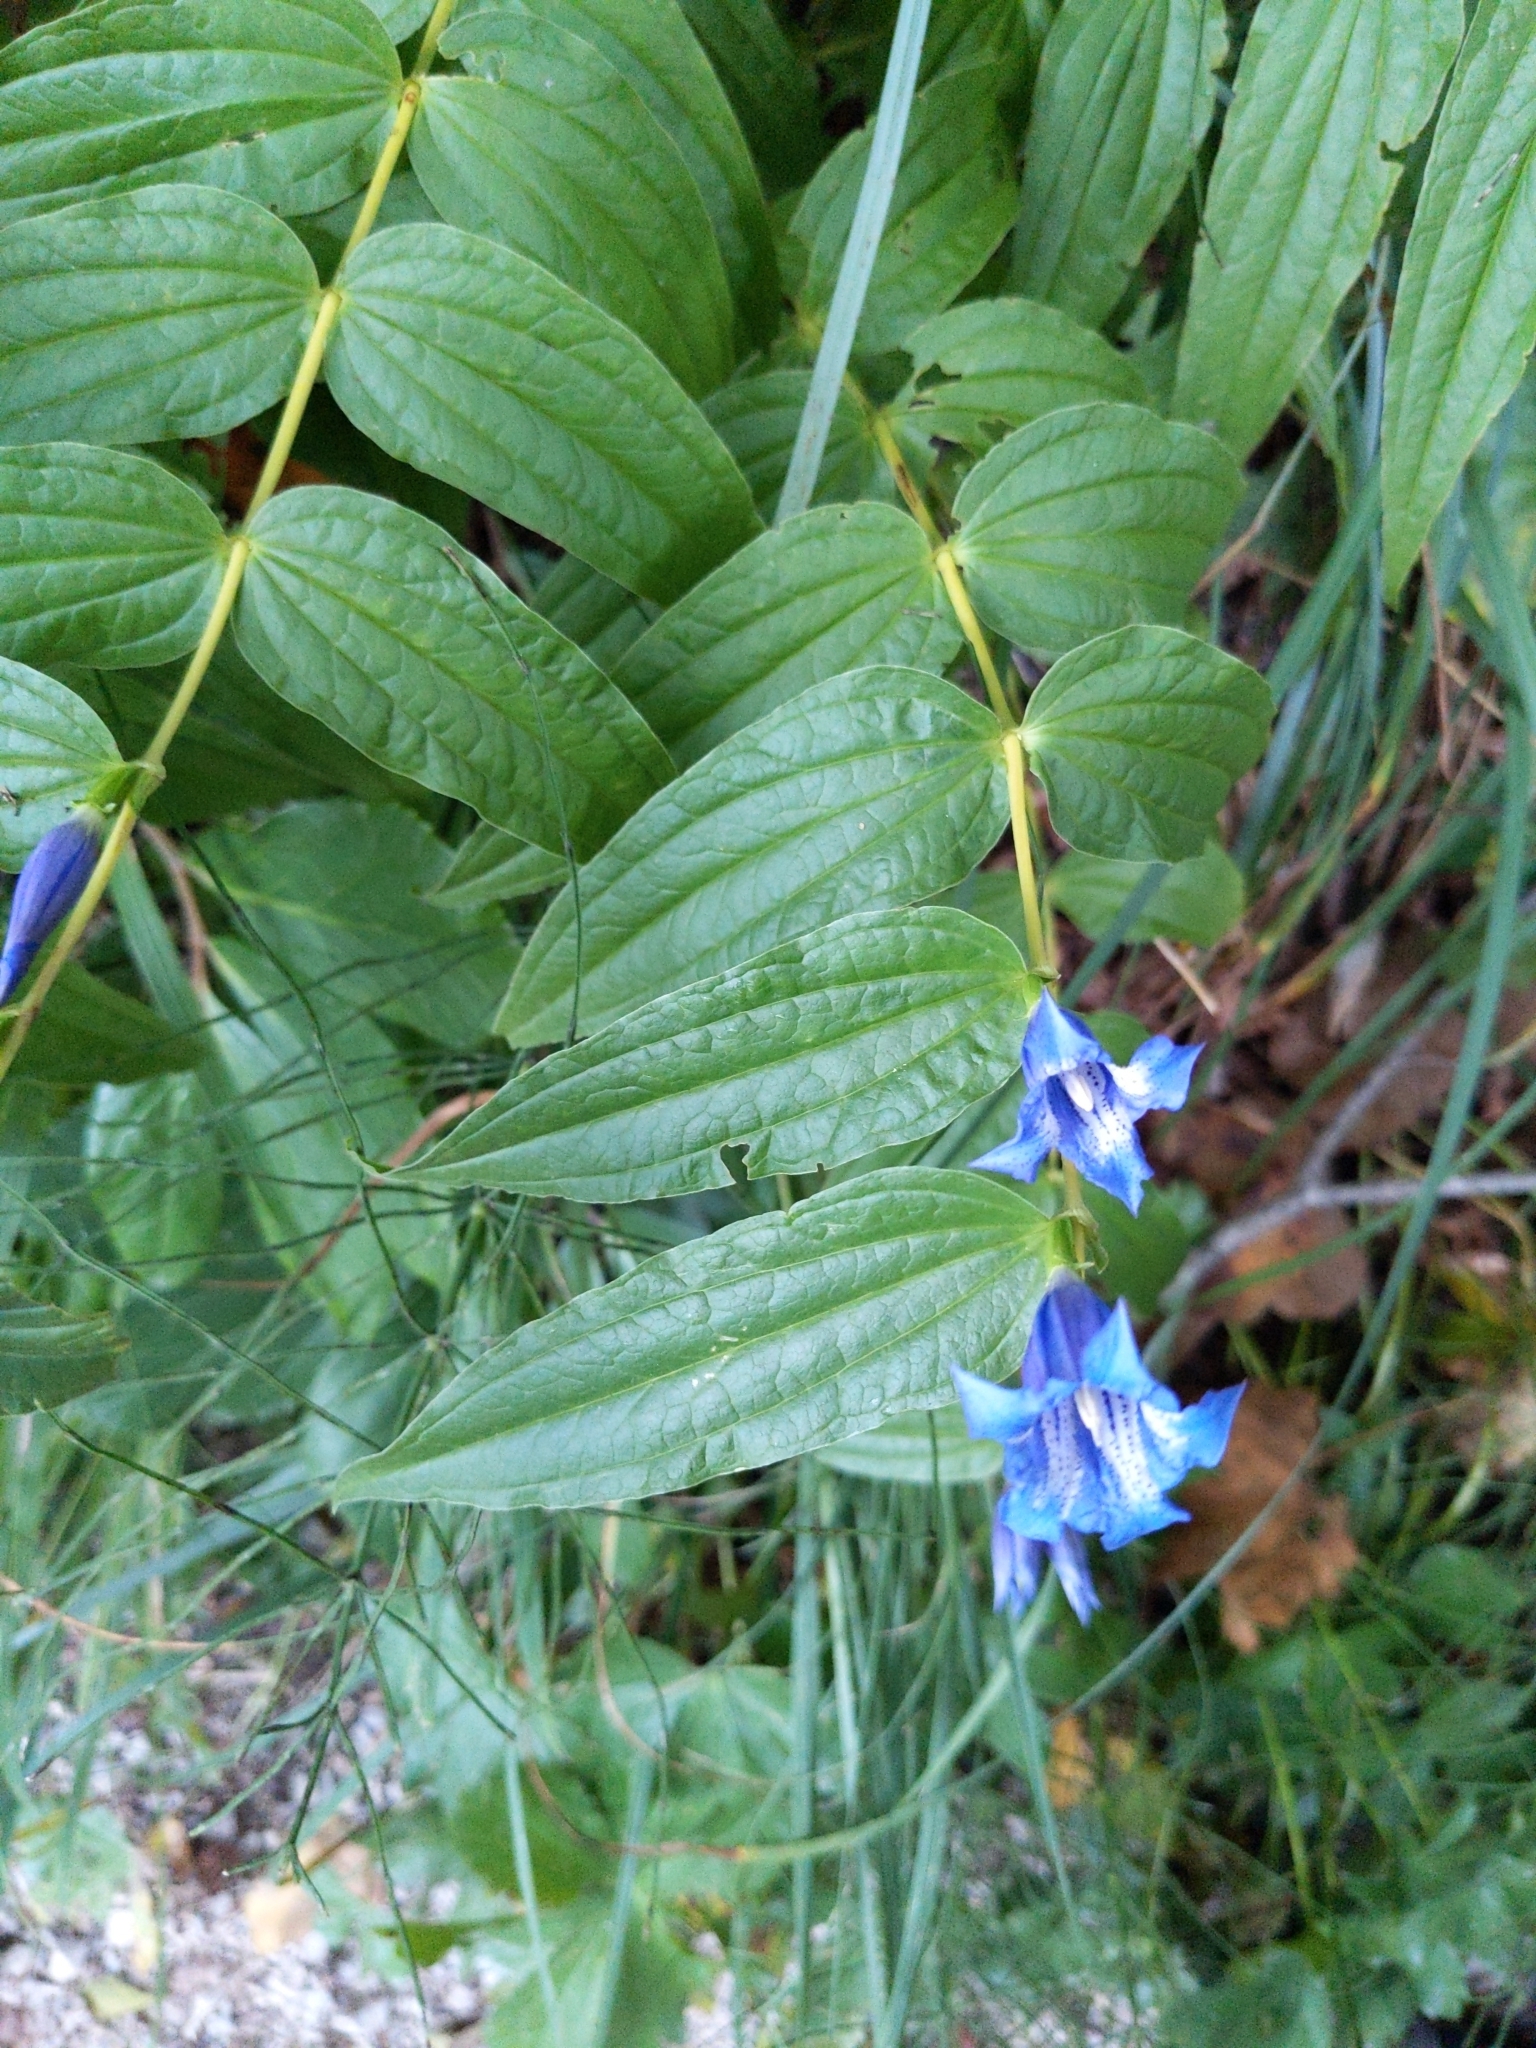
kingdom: Plantae
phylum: Tracheophyta
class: Magnoliopsida
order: Gentianales
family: Gentianaceae
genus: Gentiana
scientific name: Gentiana asclepiadea
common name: Willow gentian
